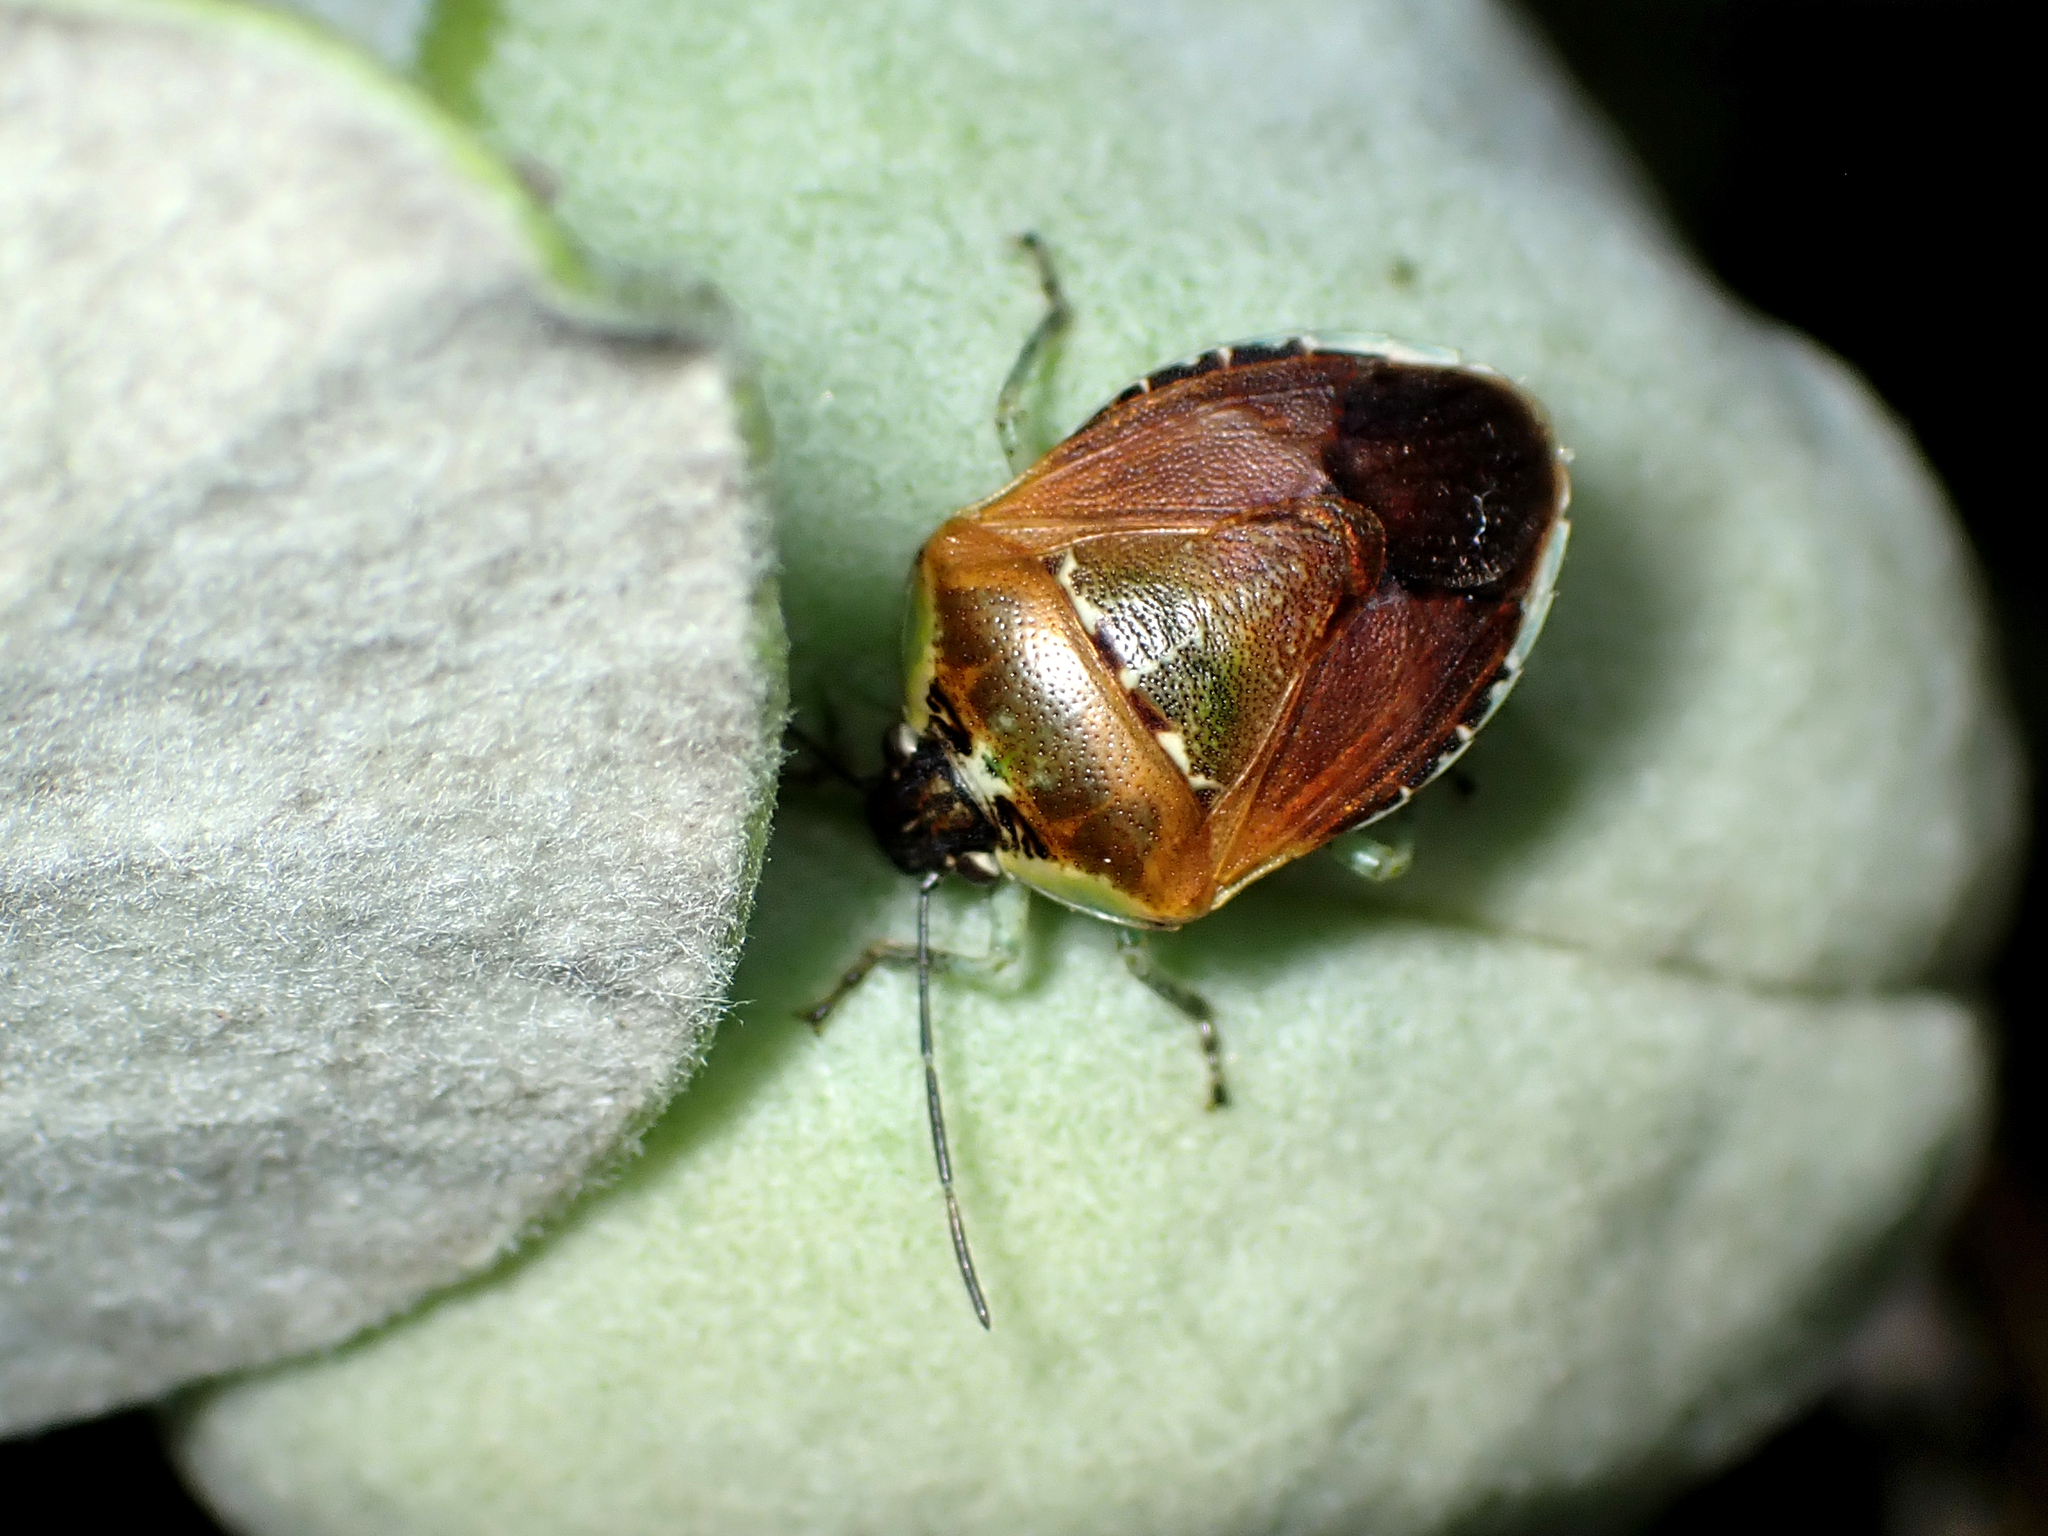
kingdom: Animalia
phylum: Arthropoda
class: Insecta
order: Hemiptera
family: Pentatomidae
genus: Monteithiella
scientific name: Monteithiella
